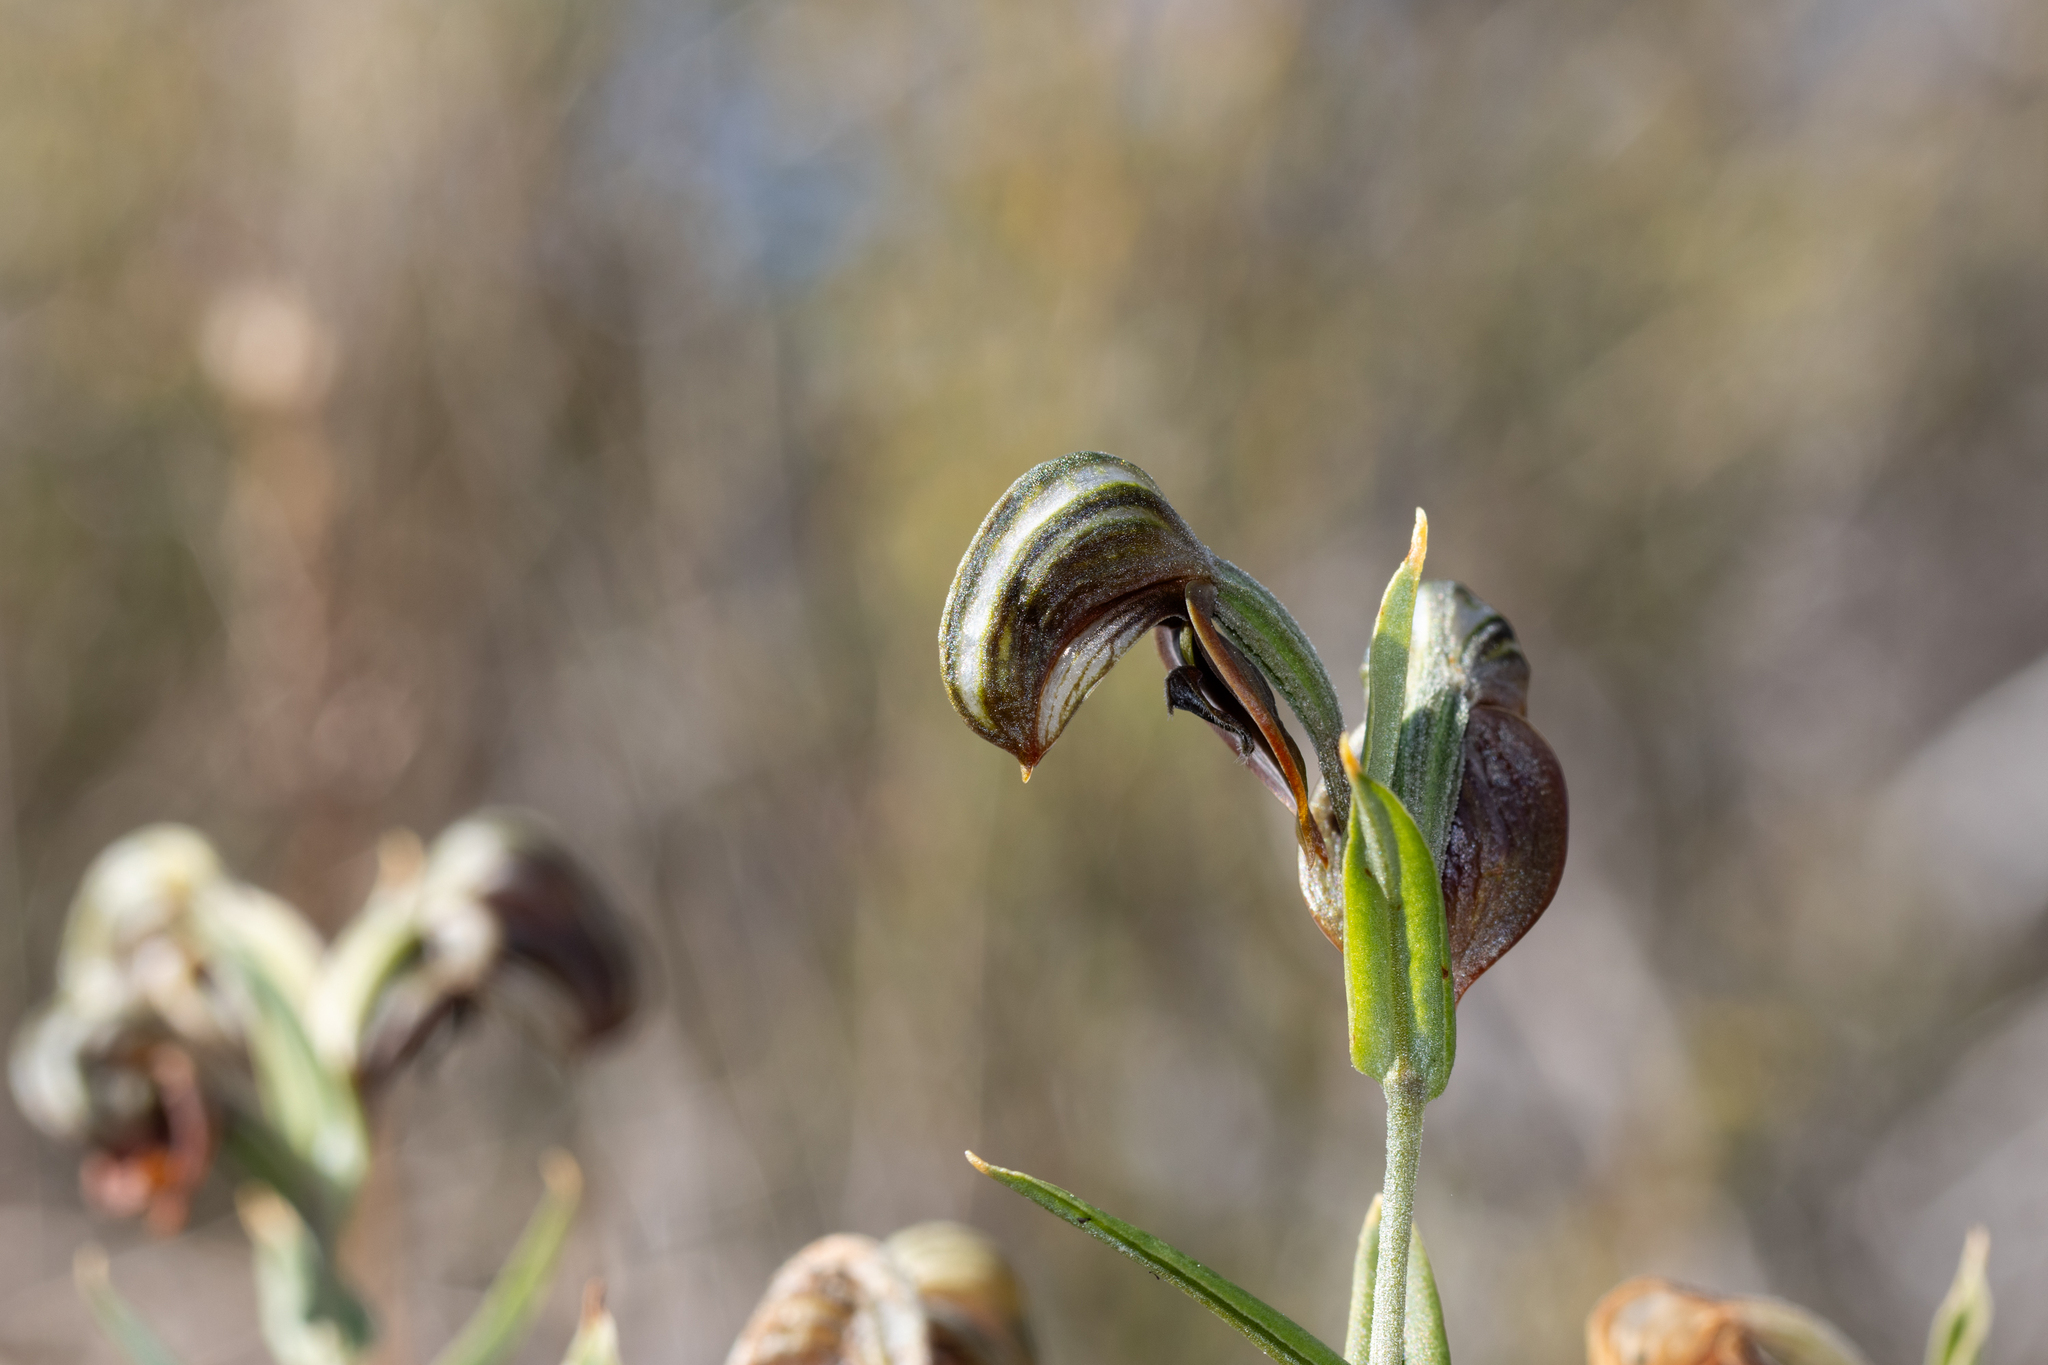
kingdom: Plantae
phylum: Tracheophyta
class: Liliopsida
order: Asparagales
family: Orchidaceae
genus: Pterostylis
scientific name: Pterostylis sanguinea
